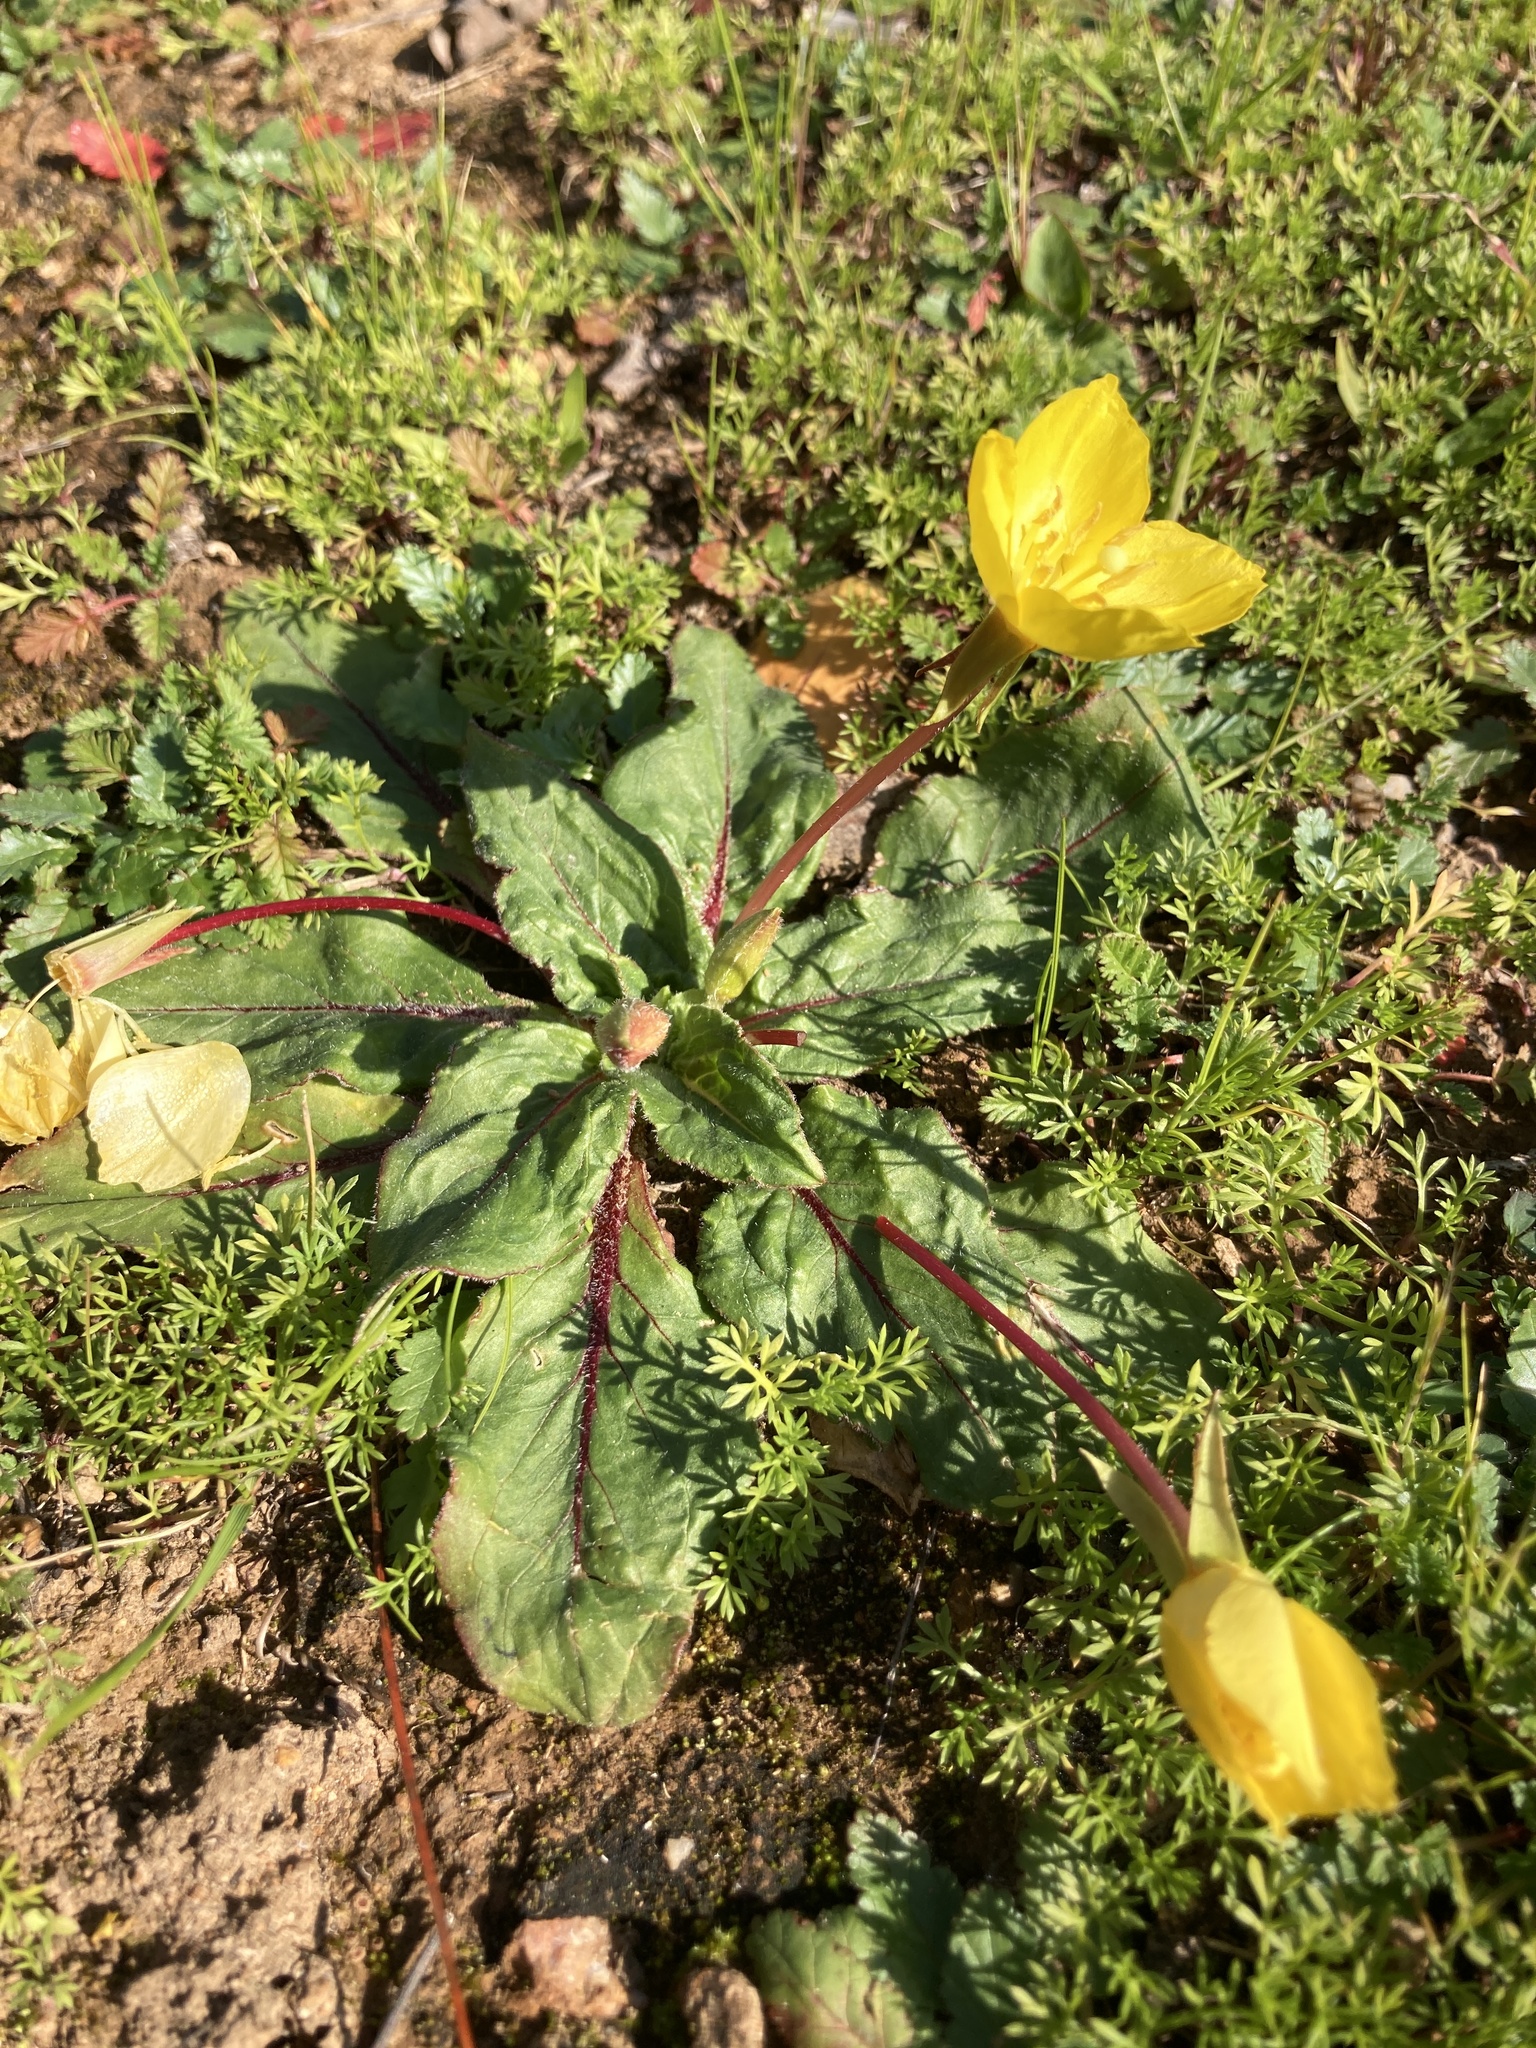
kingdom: Plantae
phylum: Tracheophyta
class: Magnoliopsida
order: Myrtales
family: Onagraceae
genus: Taraxia
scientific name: Taraxia ovata
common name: Goldeneggs
